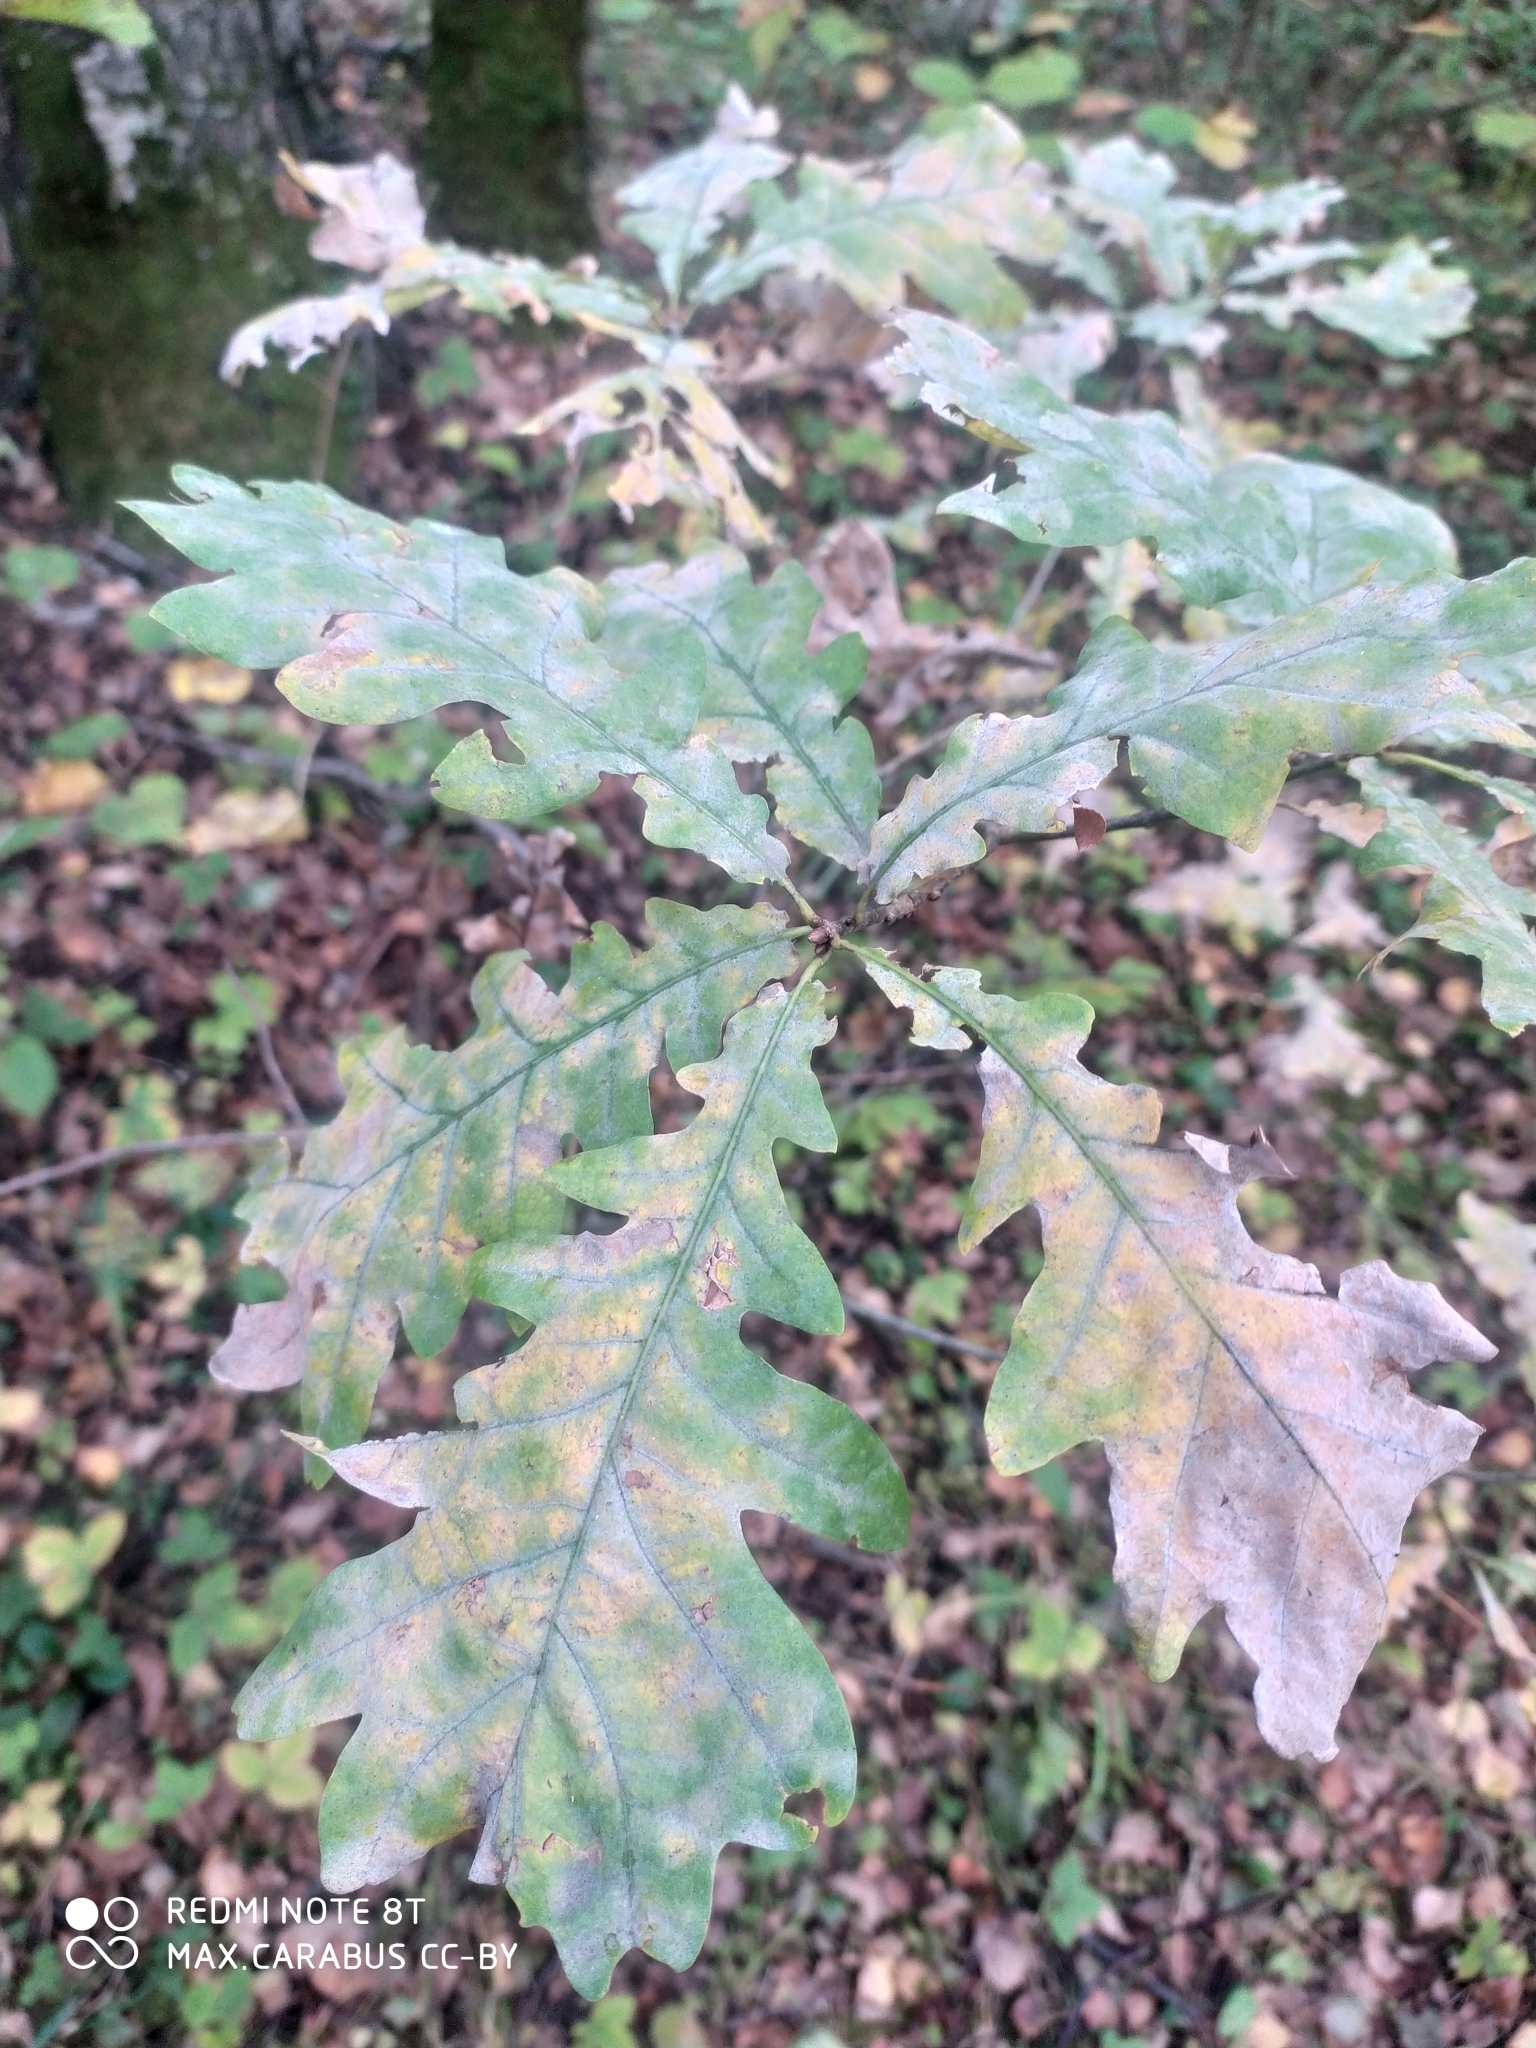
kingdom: Plantae
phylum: Tracheophyta
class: Magnoliopsida
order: Fagales
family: Fagaceae
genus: Quercus
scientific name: Quercus robur
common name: Pedunculate oak
